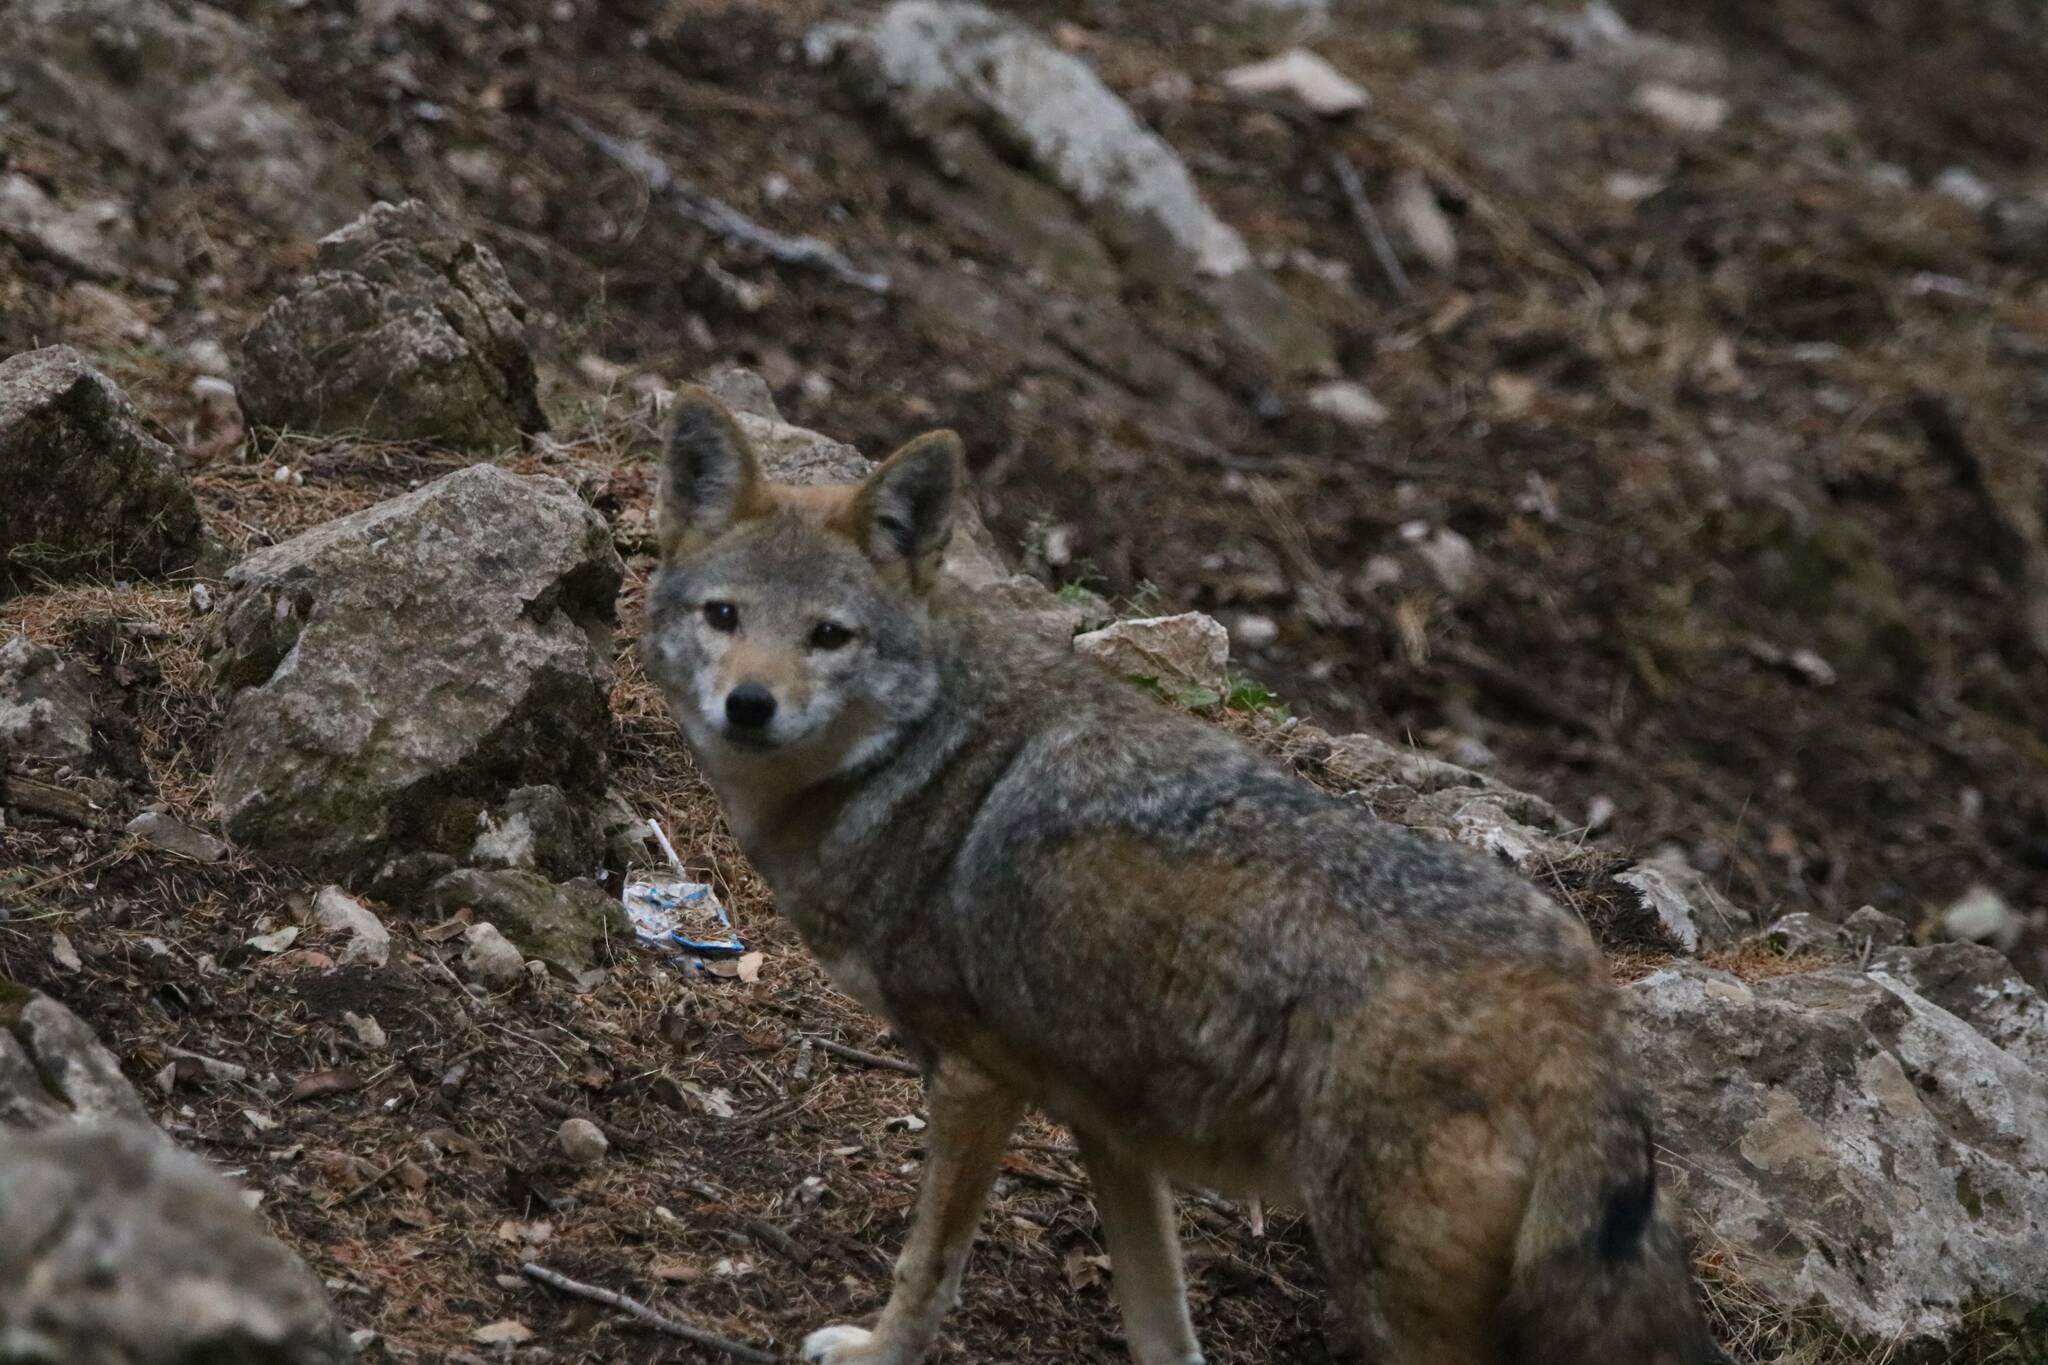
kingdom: Animalia
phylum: Chordata
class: Mammalia
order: Carnivora
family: Canidae
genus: Canis
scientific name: Canis lupaster
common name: African golden wolf
